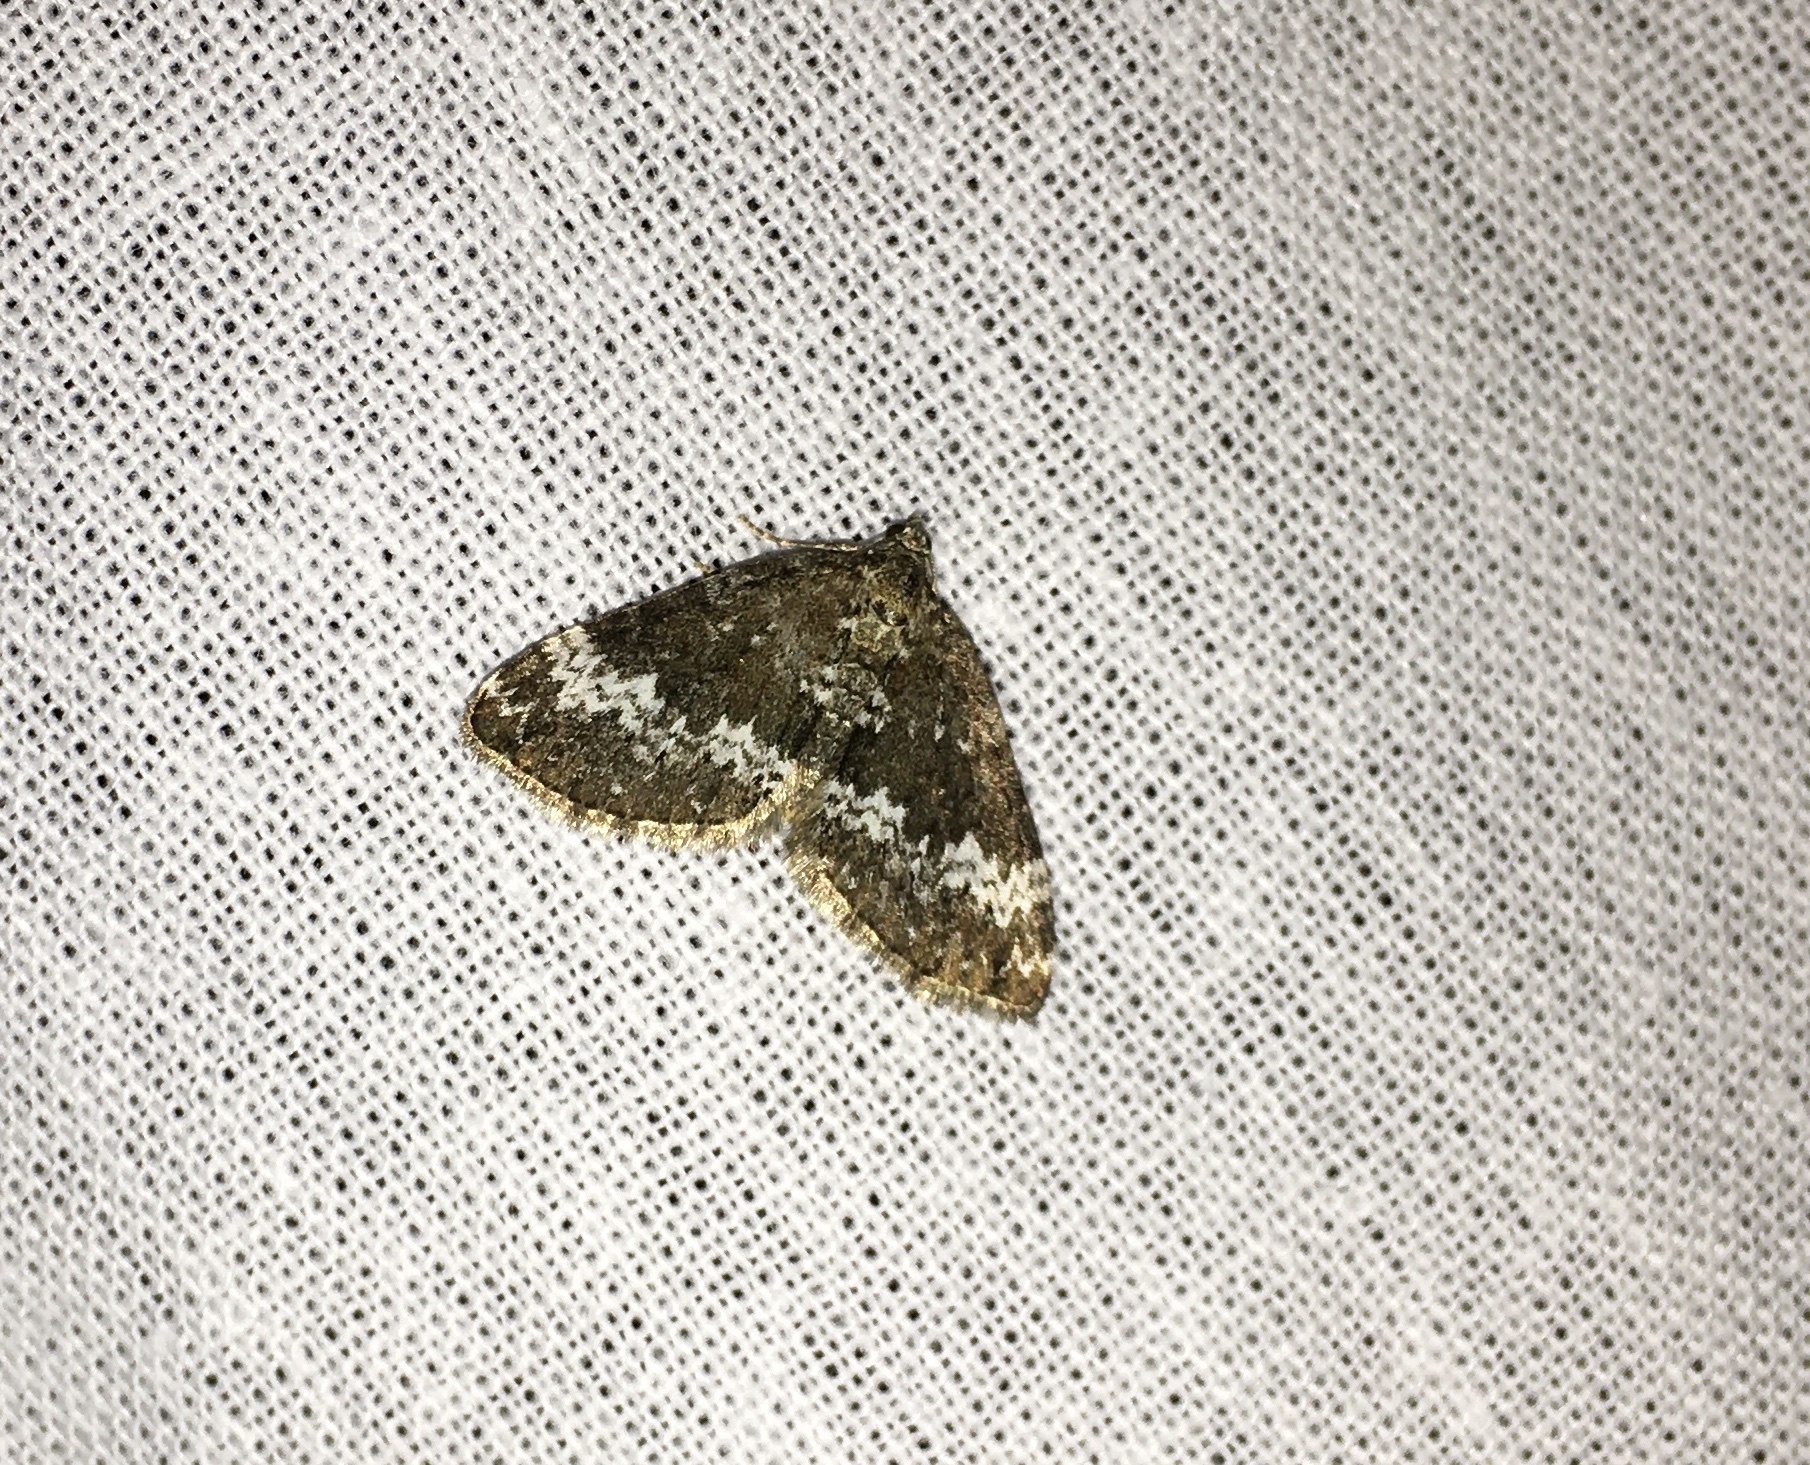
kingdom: Animalia
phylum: Arthropoda
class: Insecta
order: Lepidoptera
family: Geometridae
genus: Perizoma
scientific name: Perizoma alchemillata
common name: Small rivulet
